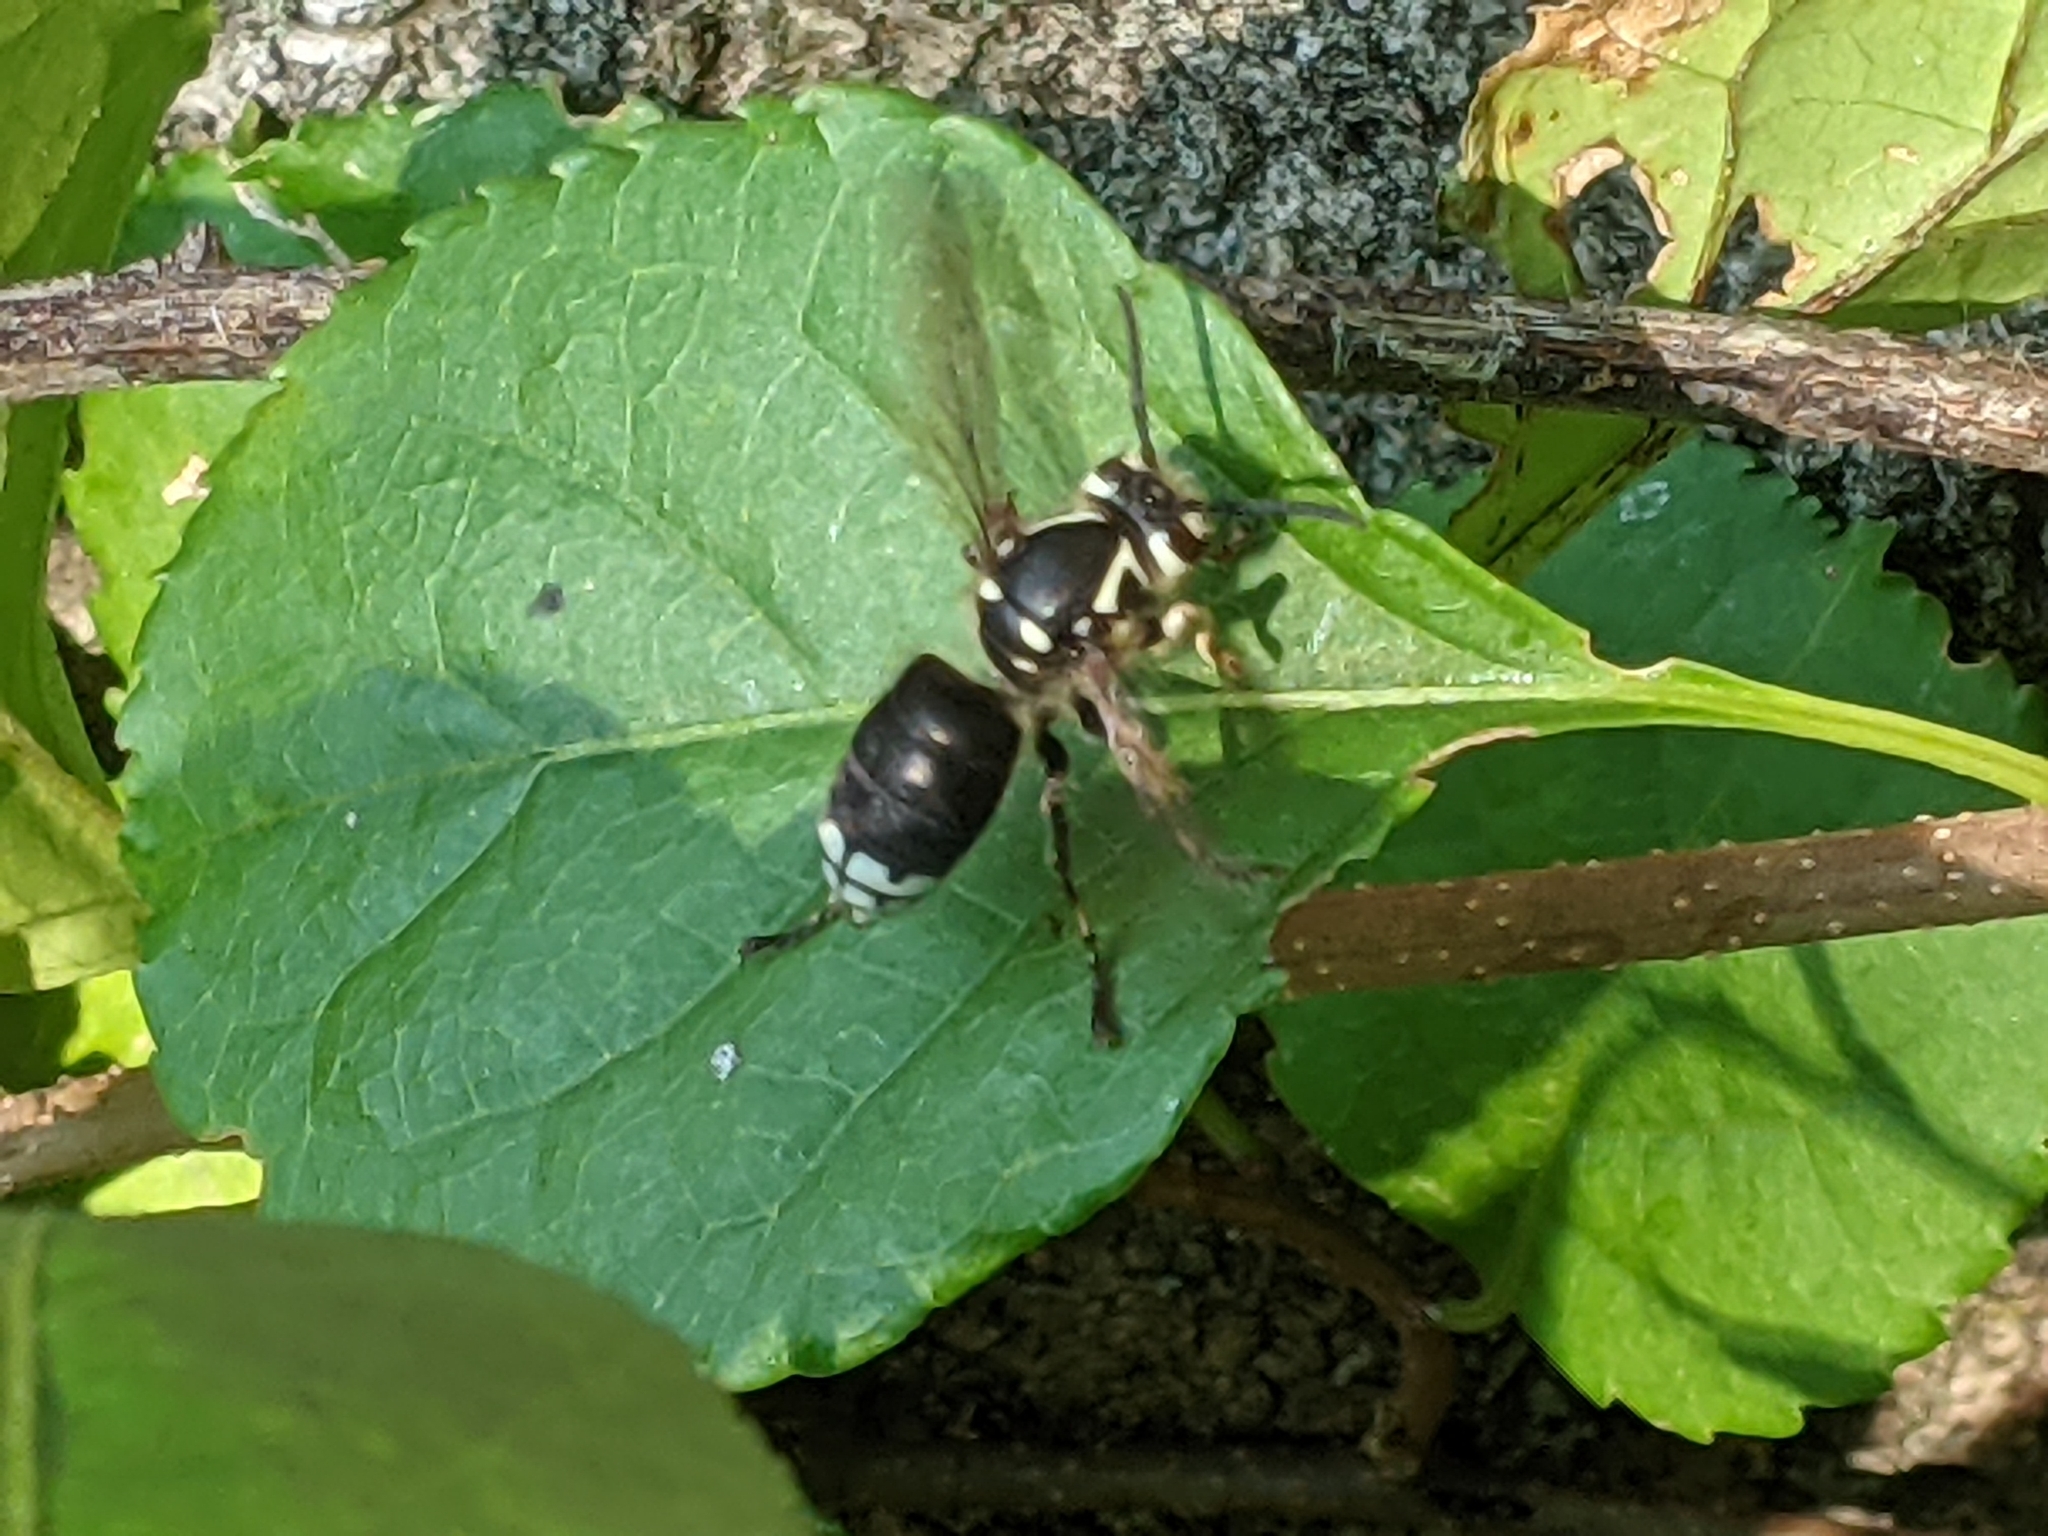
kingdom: Animalia
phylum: Arthropoda
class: Insecta
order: Hymenoptera
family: Vespidae
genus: Dolichovespula
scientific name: Dolichovespula maculata
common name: Bald-faced hornet
